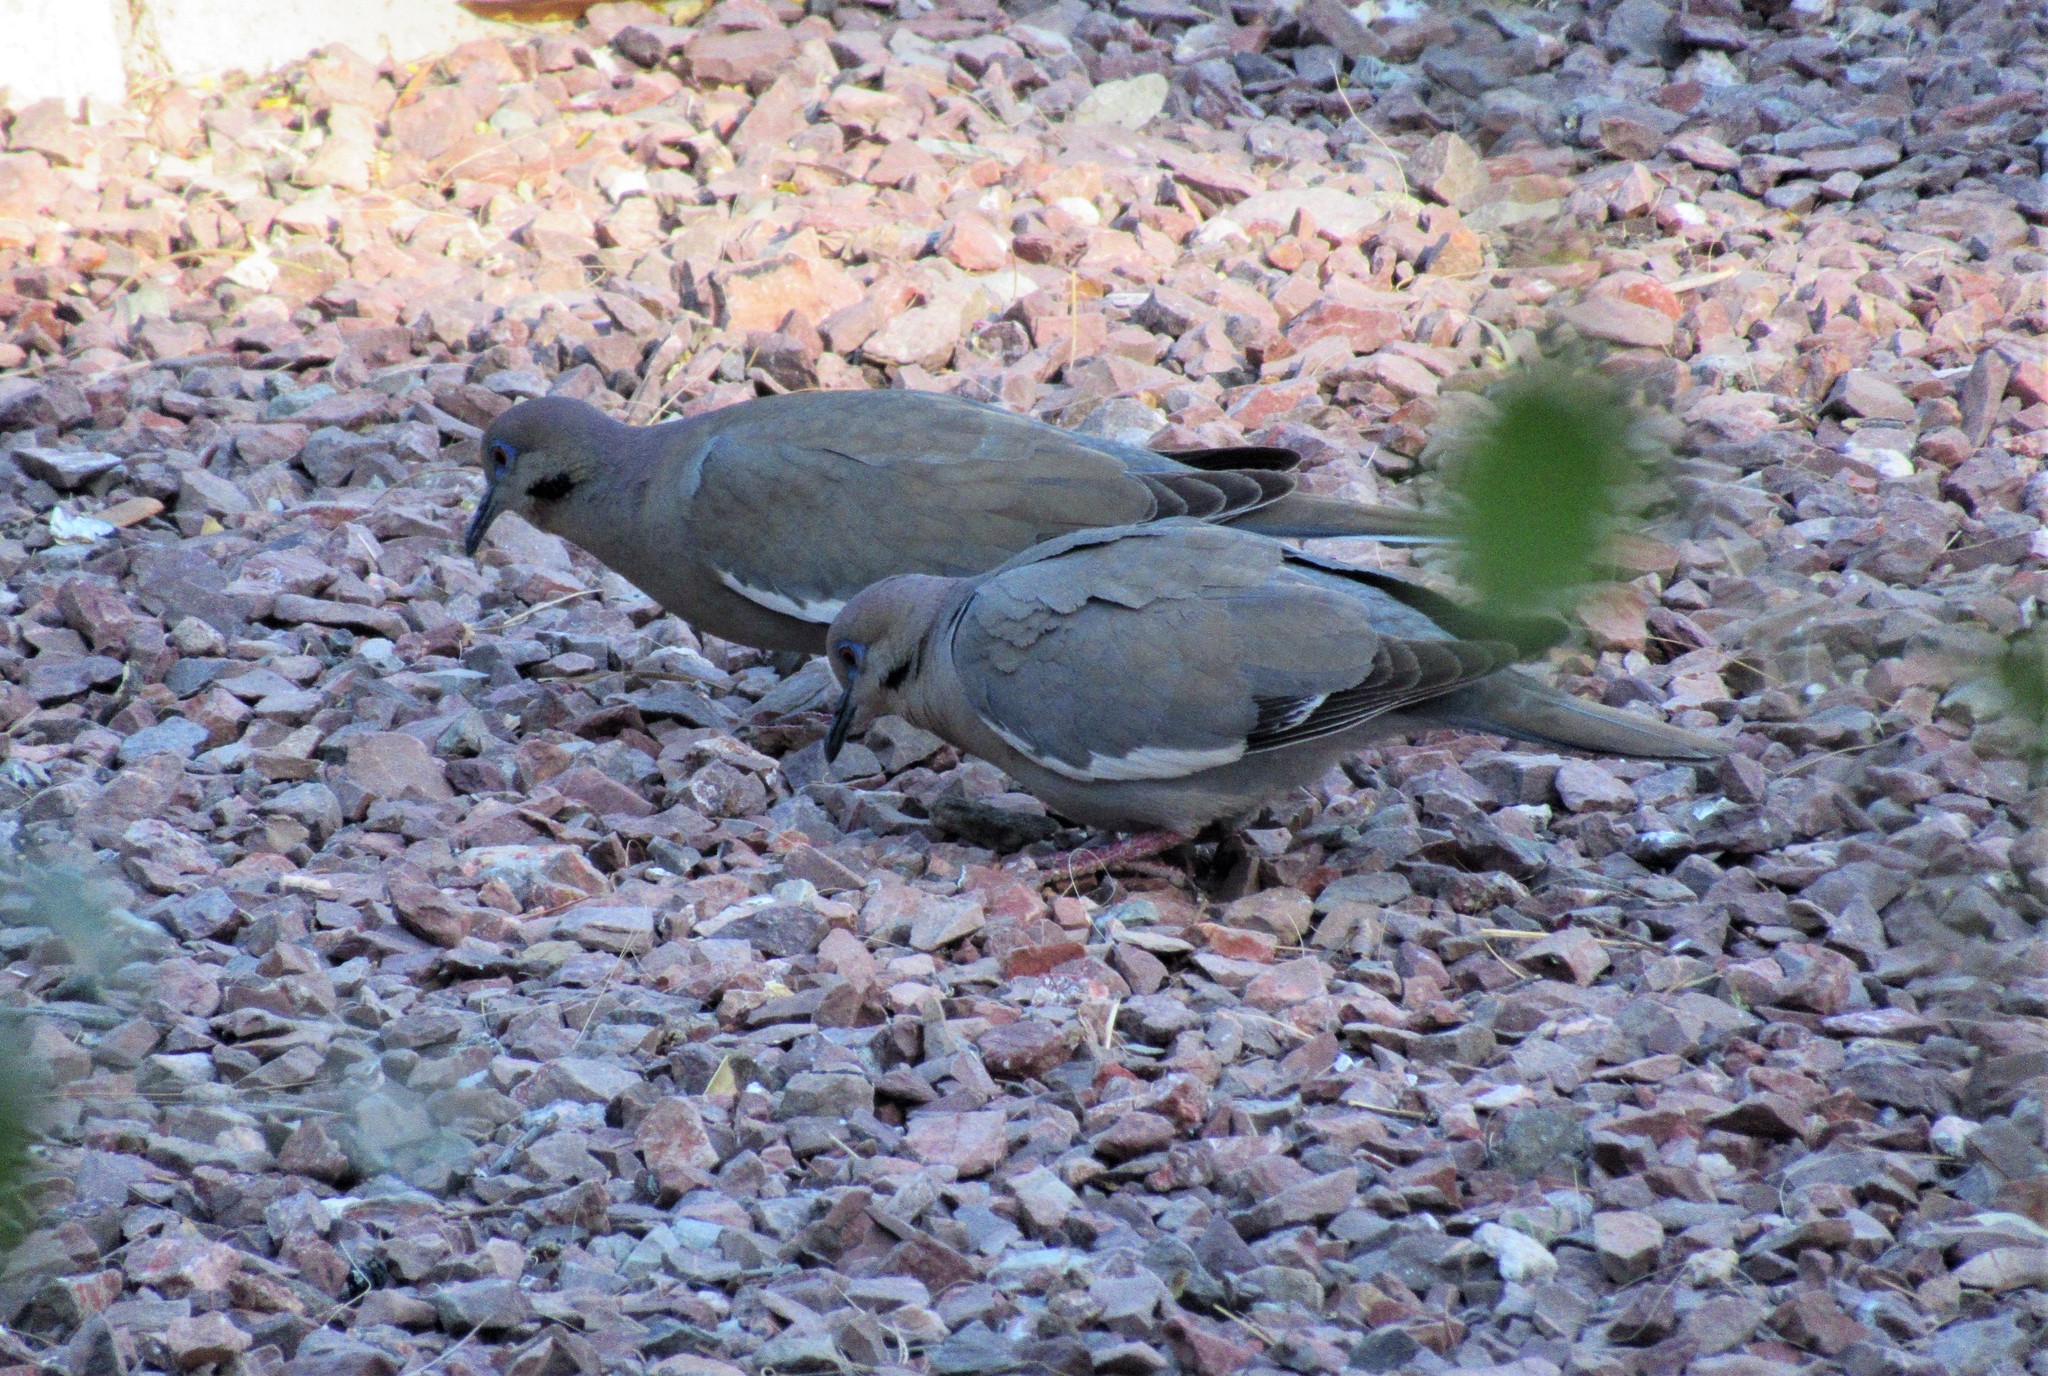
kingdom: Animalia
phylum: Chordata
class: Aves
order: Columbiformes
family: Columbidae
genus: Zenaida
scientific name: Zenaida asiatica
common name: White-winged dove
